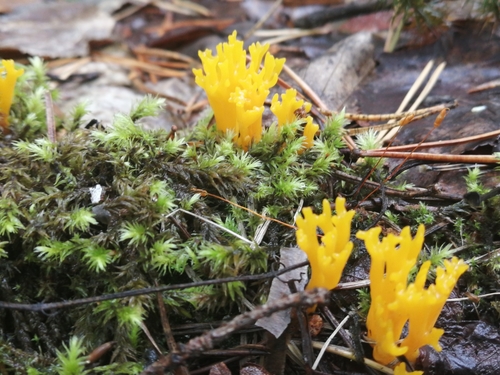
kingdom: Fungi
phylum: Basidiomycota
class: Agaricomycetes
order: Agaricales
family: Clavariaceae
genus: Ramariopsis
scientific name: Ramariopsis crocea
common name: Orange coral
